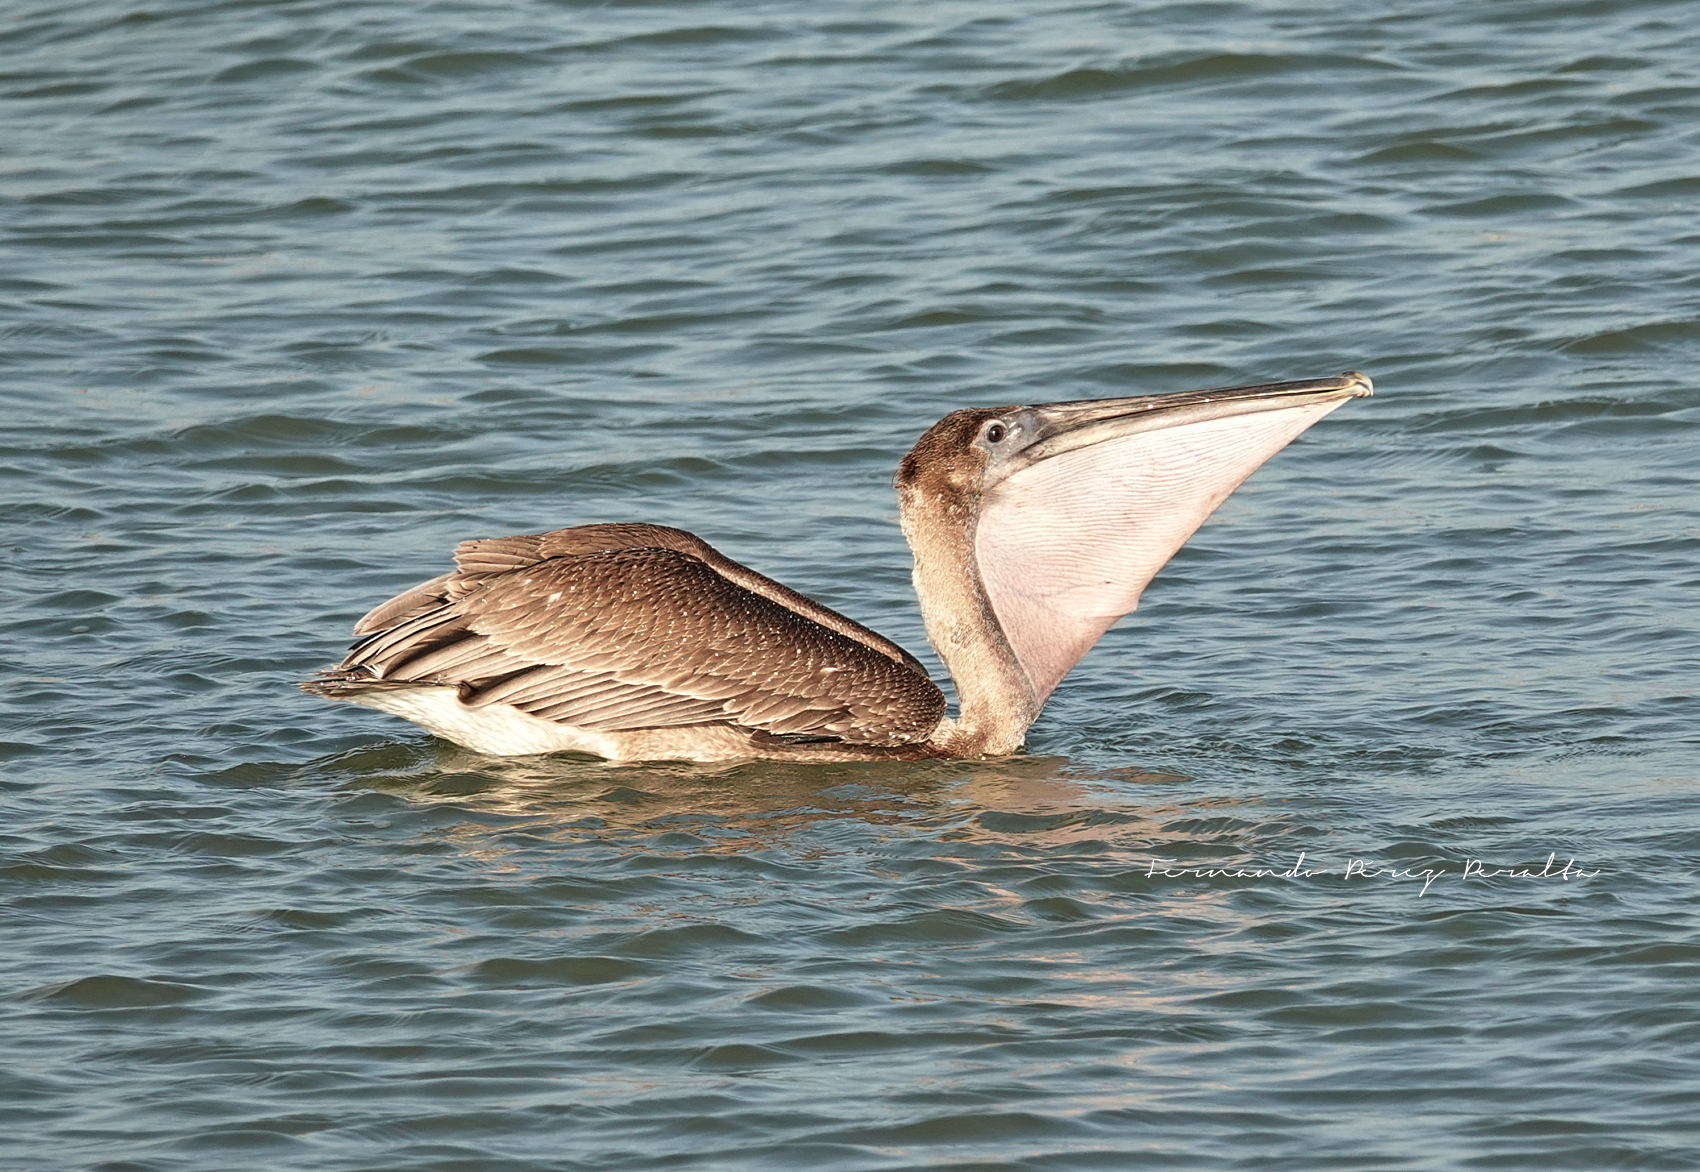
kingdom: Animalia
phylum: Chordata
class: Aves
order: Pelecaniformes
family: Pelecanidae
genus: Pelecanus
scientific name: Pelecanus occidentalis
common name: Brown pelican
